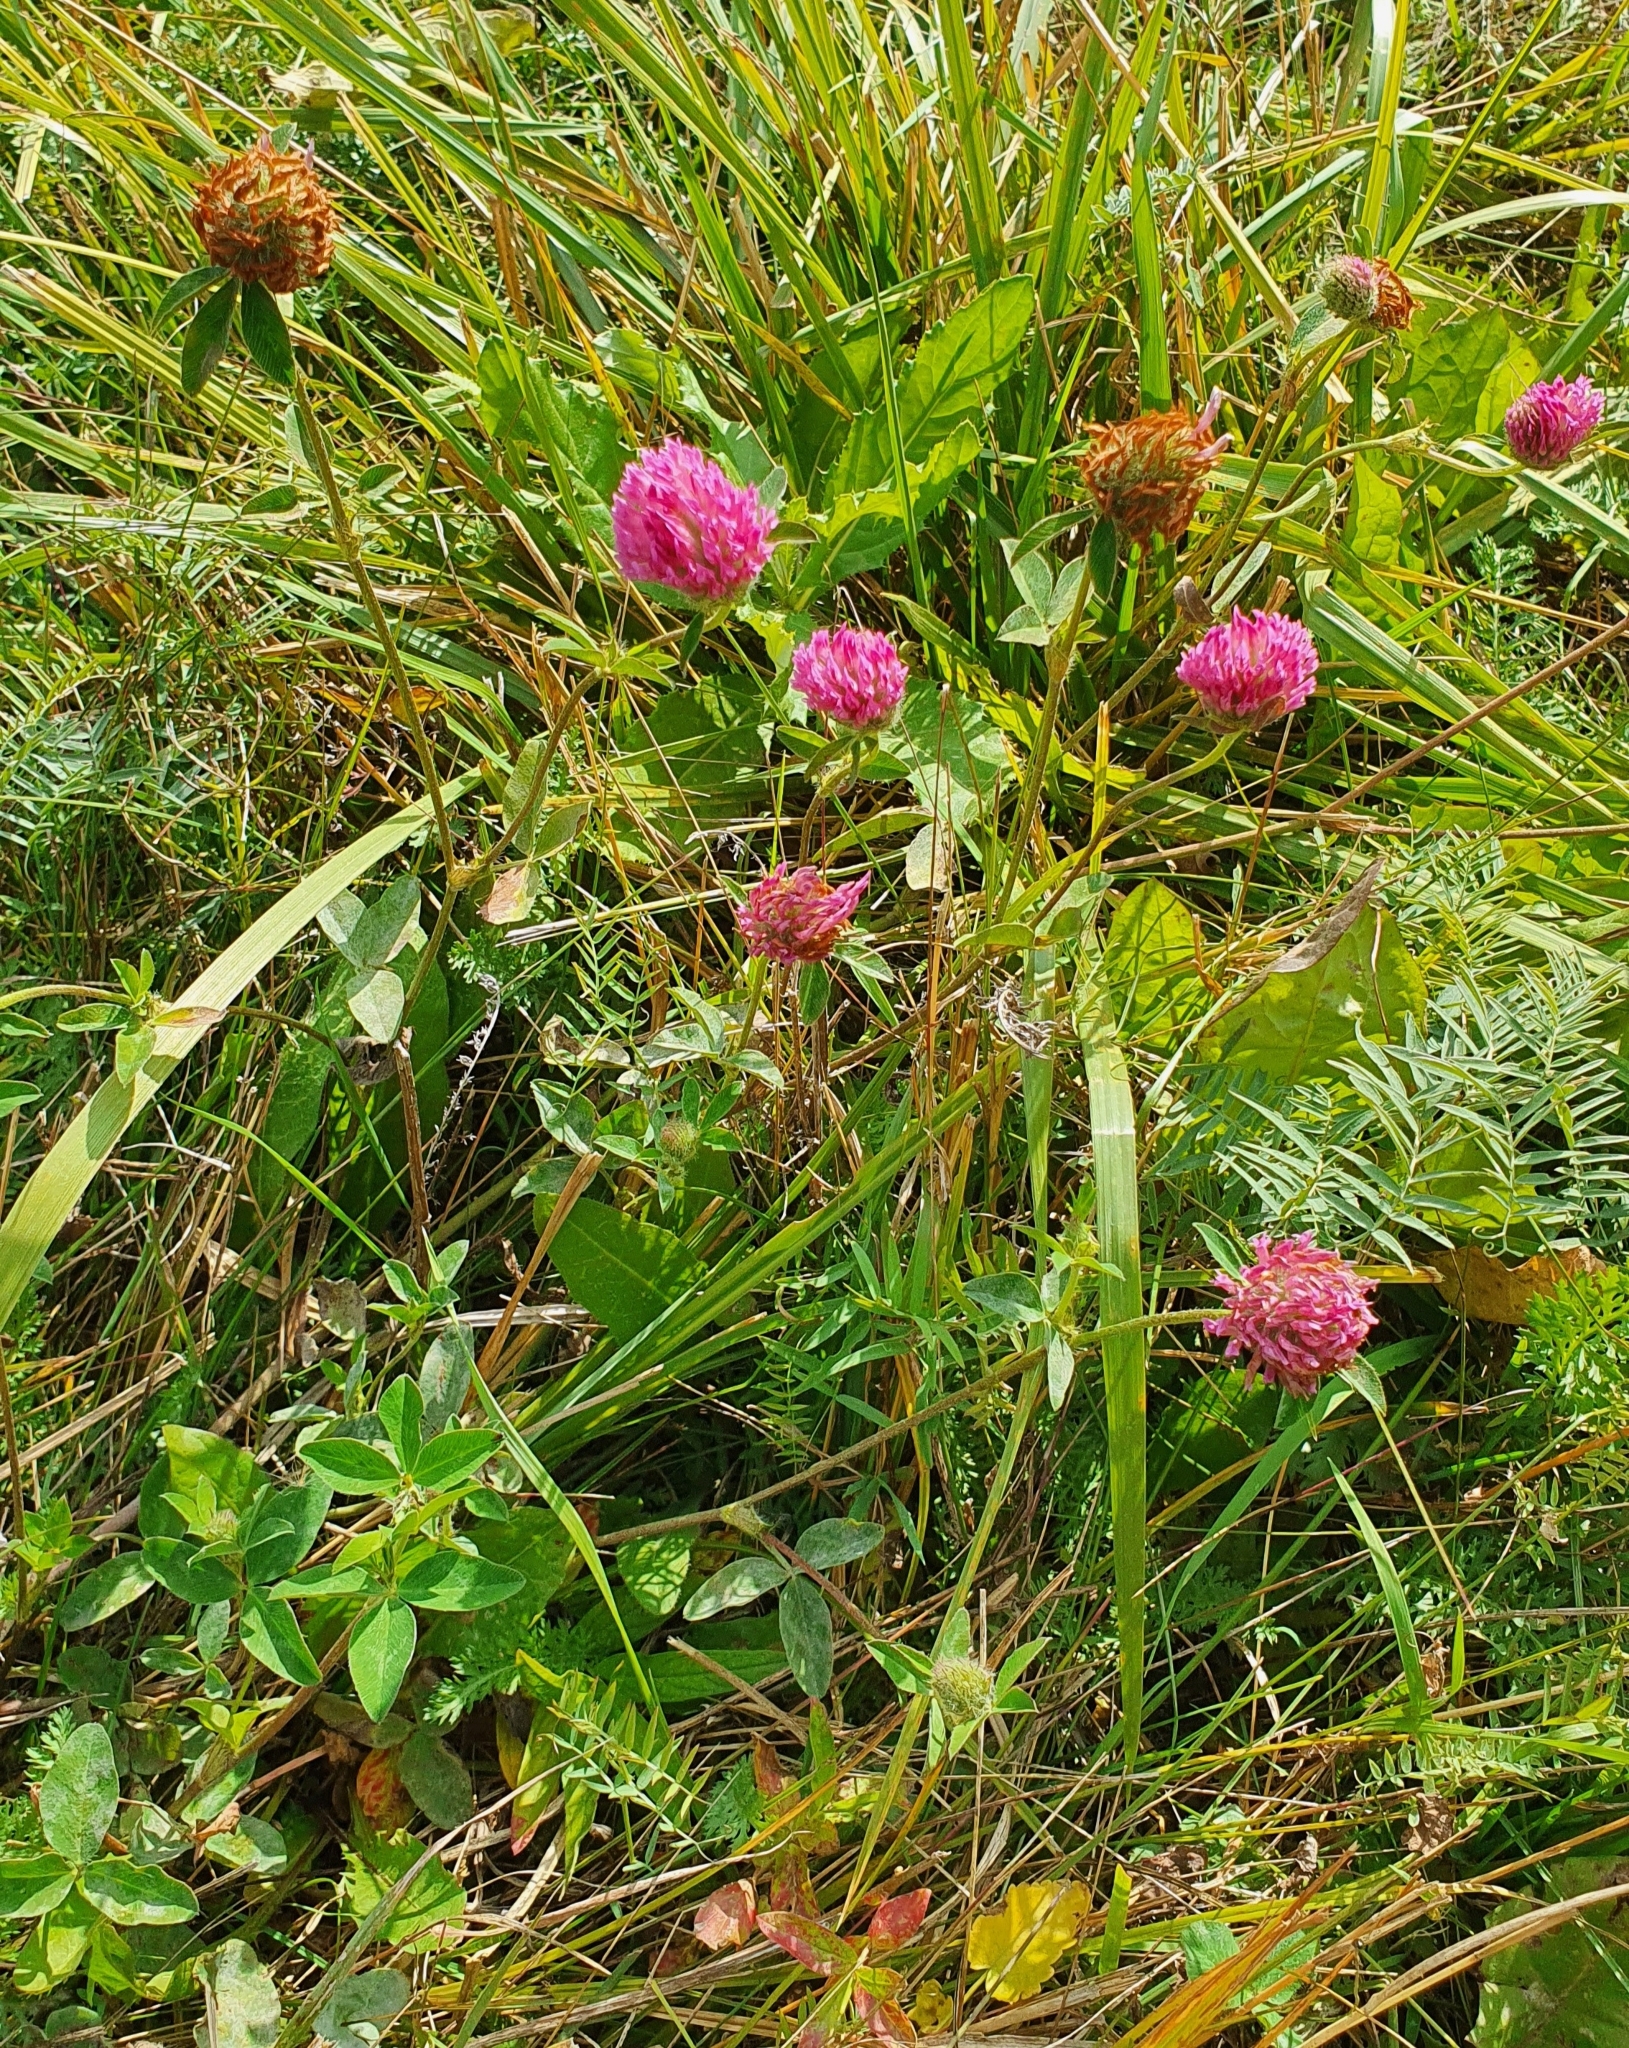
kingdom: Plantae
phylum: Tracheophyta
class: Magnoliopsida
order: Fabales
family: Fabaceae
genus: Trifolium
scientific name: Trifolium pratense
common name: Red clover
